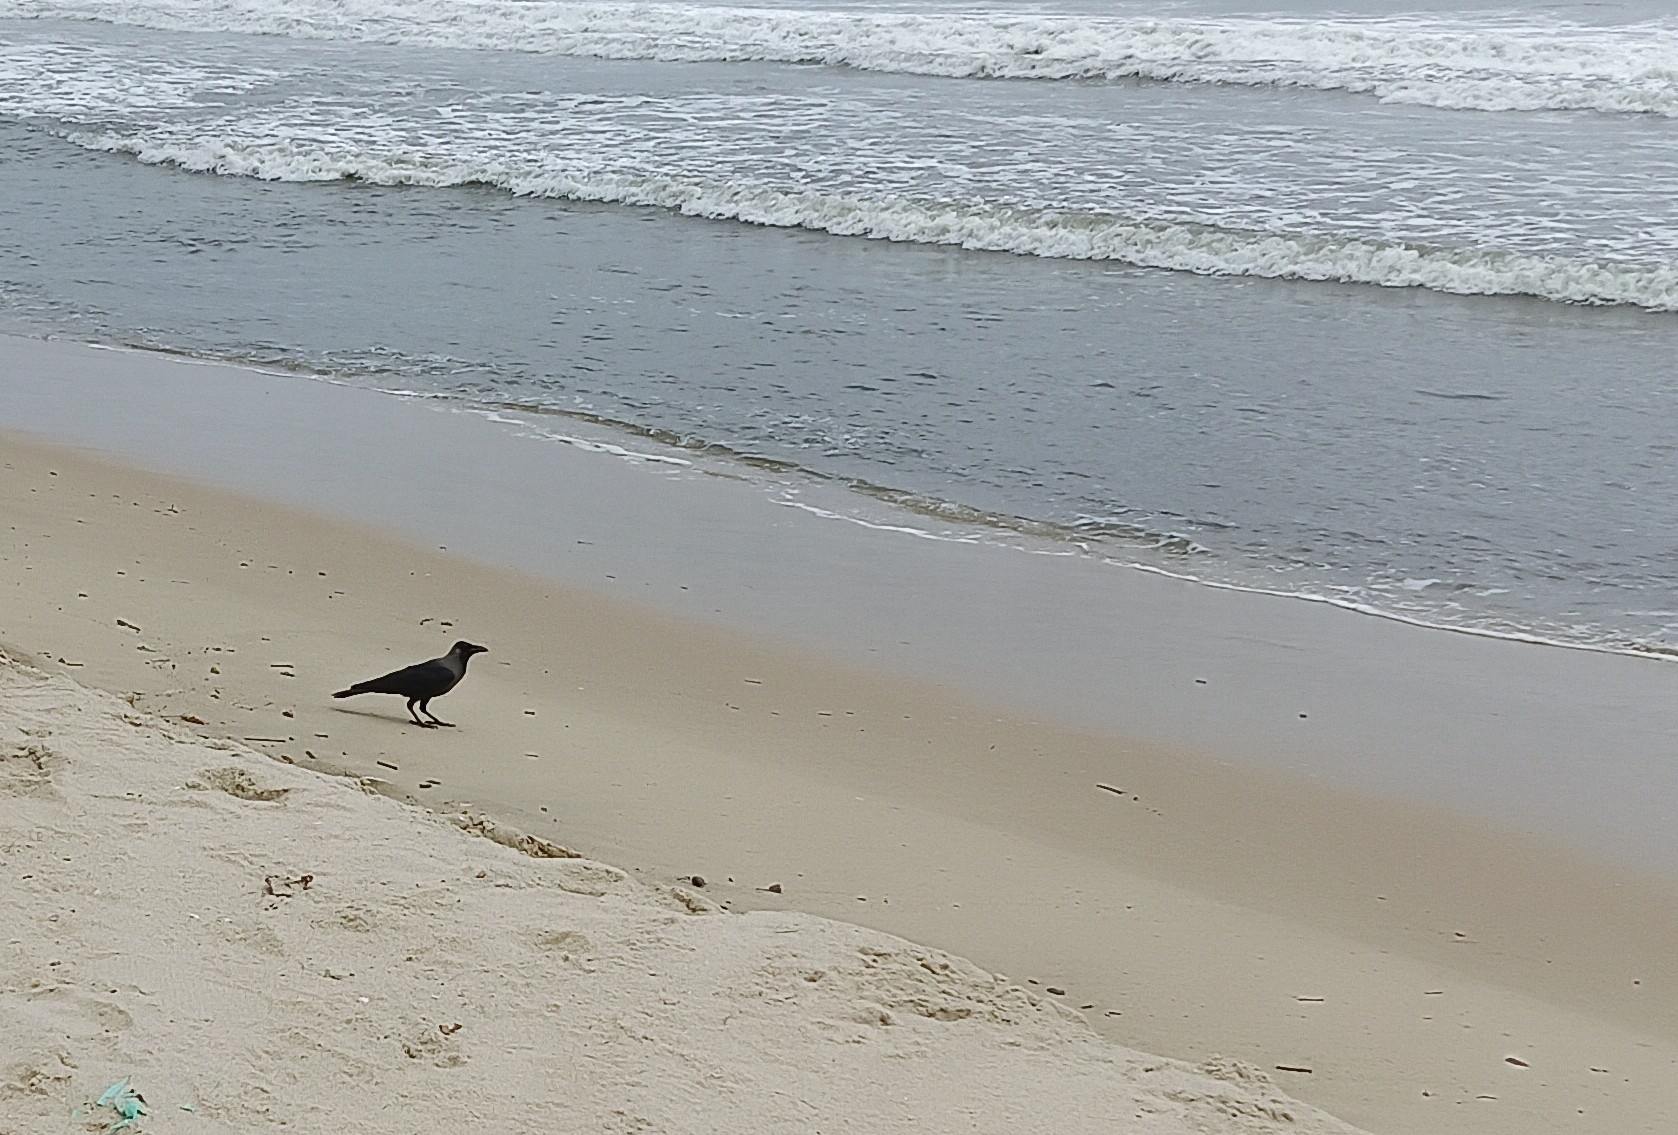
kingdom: Animalia
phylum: Chordata
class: Aves
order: Passeriformes
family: Corvidae
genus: Corvus
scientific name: Corvus splendens
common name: House crow
